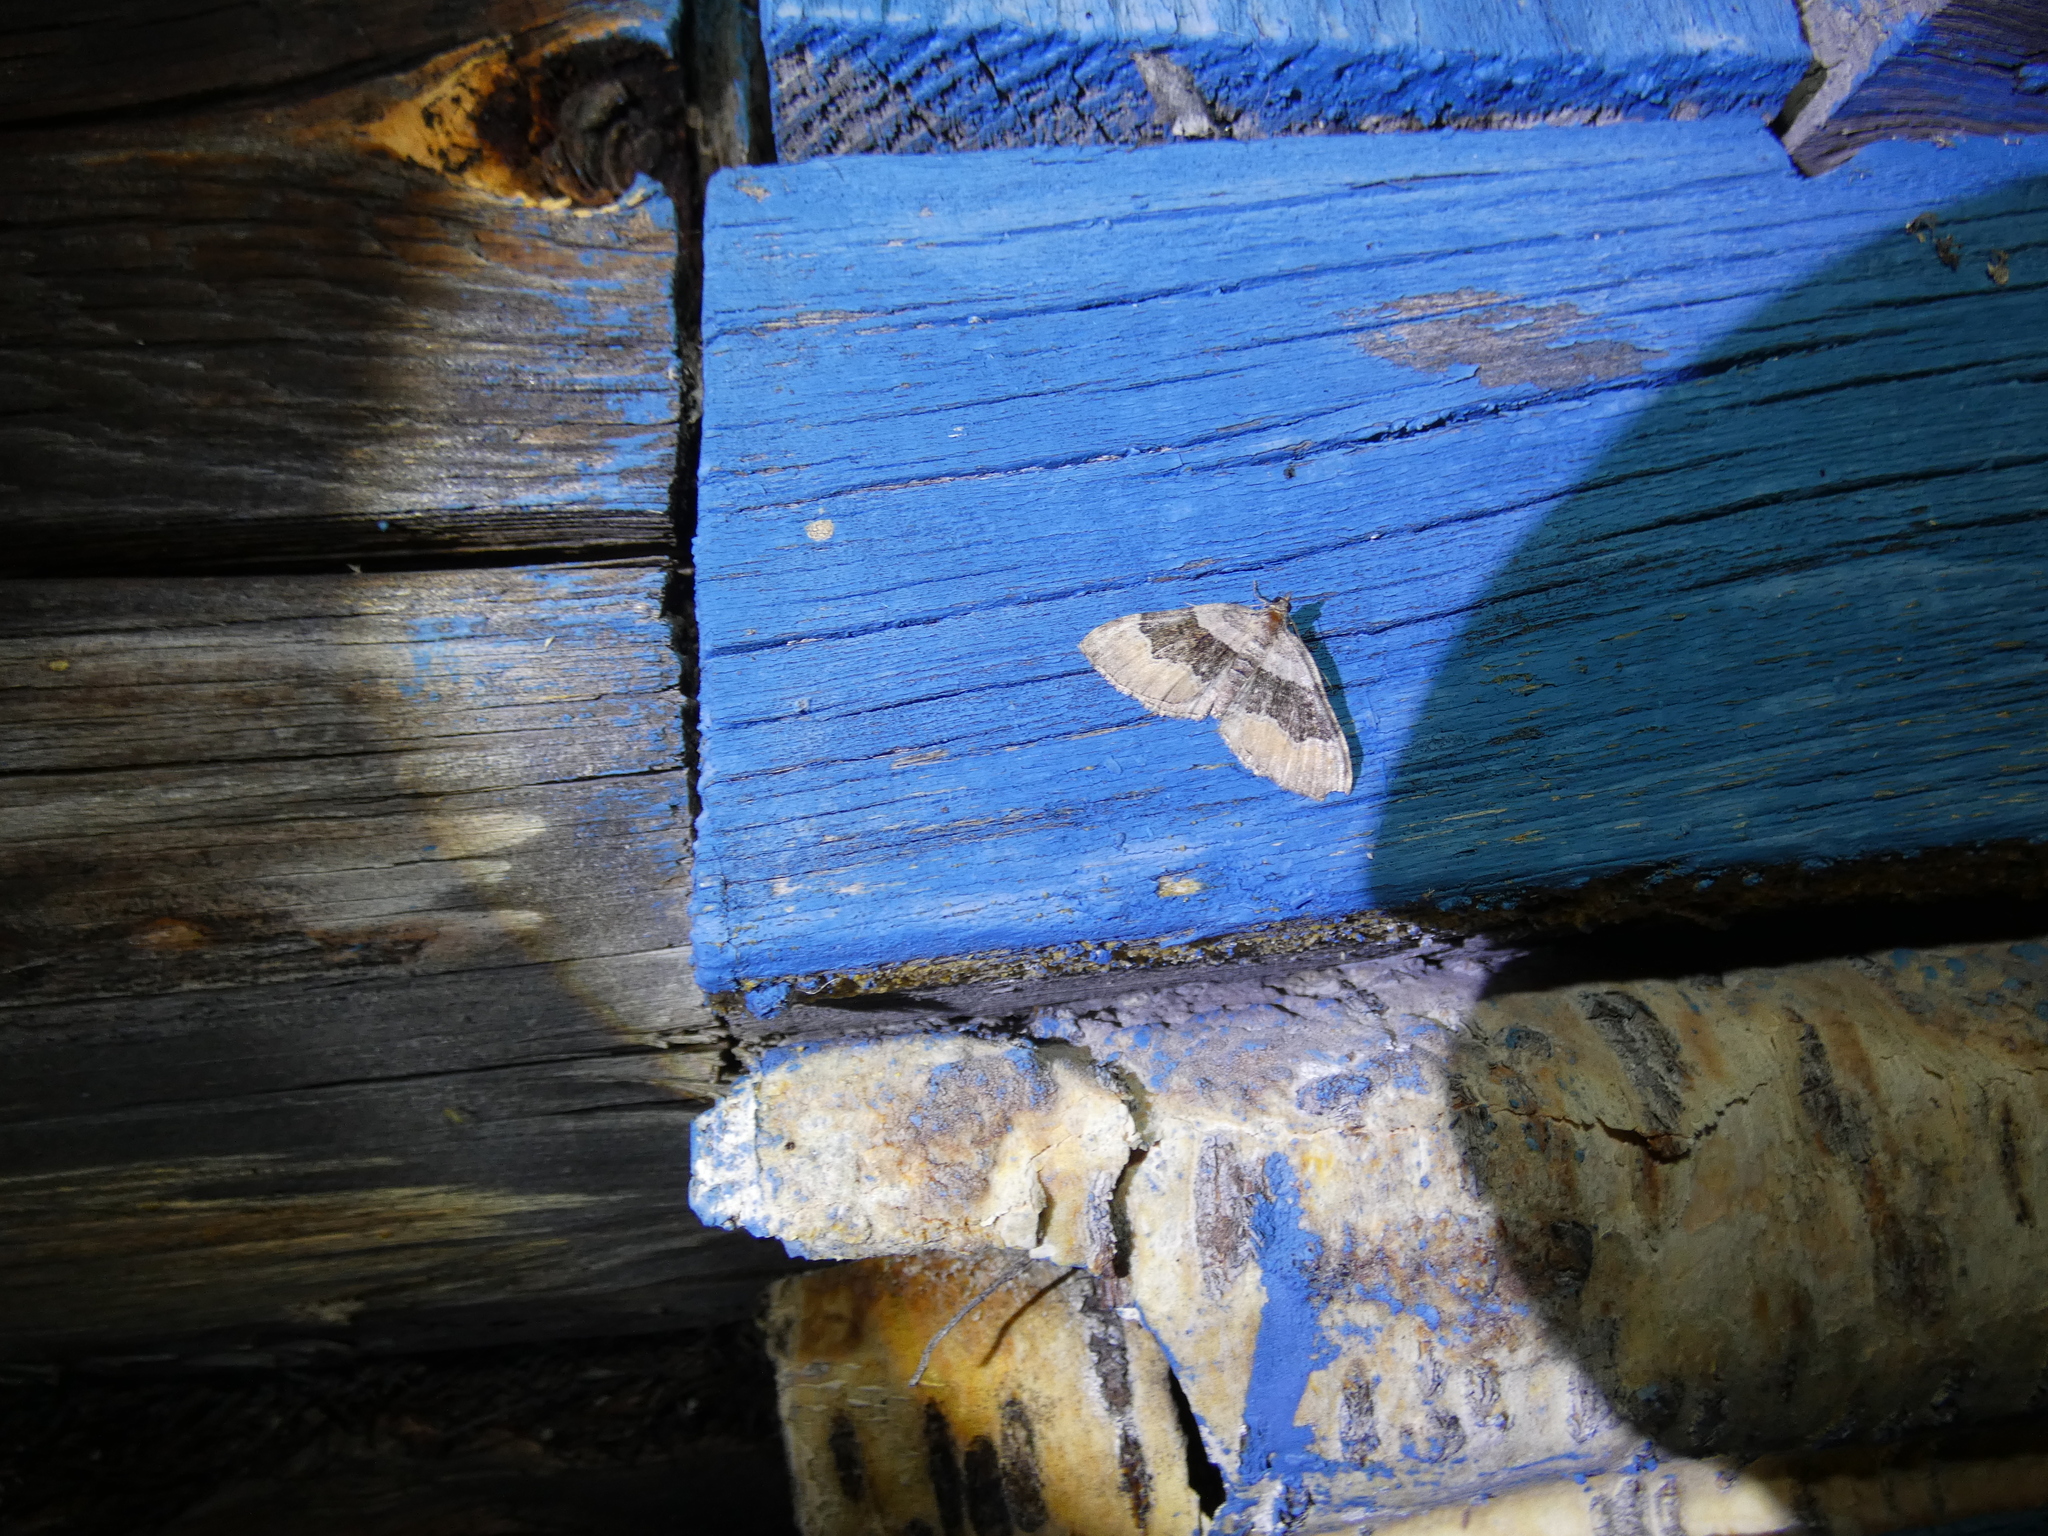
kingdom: Animalia
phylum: Arthropoda
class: Insecta
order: Lepidoptera
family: Geometridae
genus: Xanthorhoe
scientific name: Xanthorhoe quadrifasiata
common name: Large twin-spot carpet
